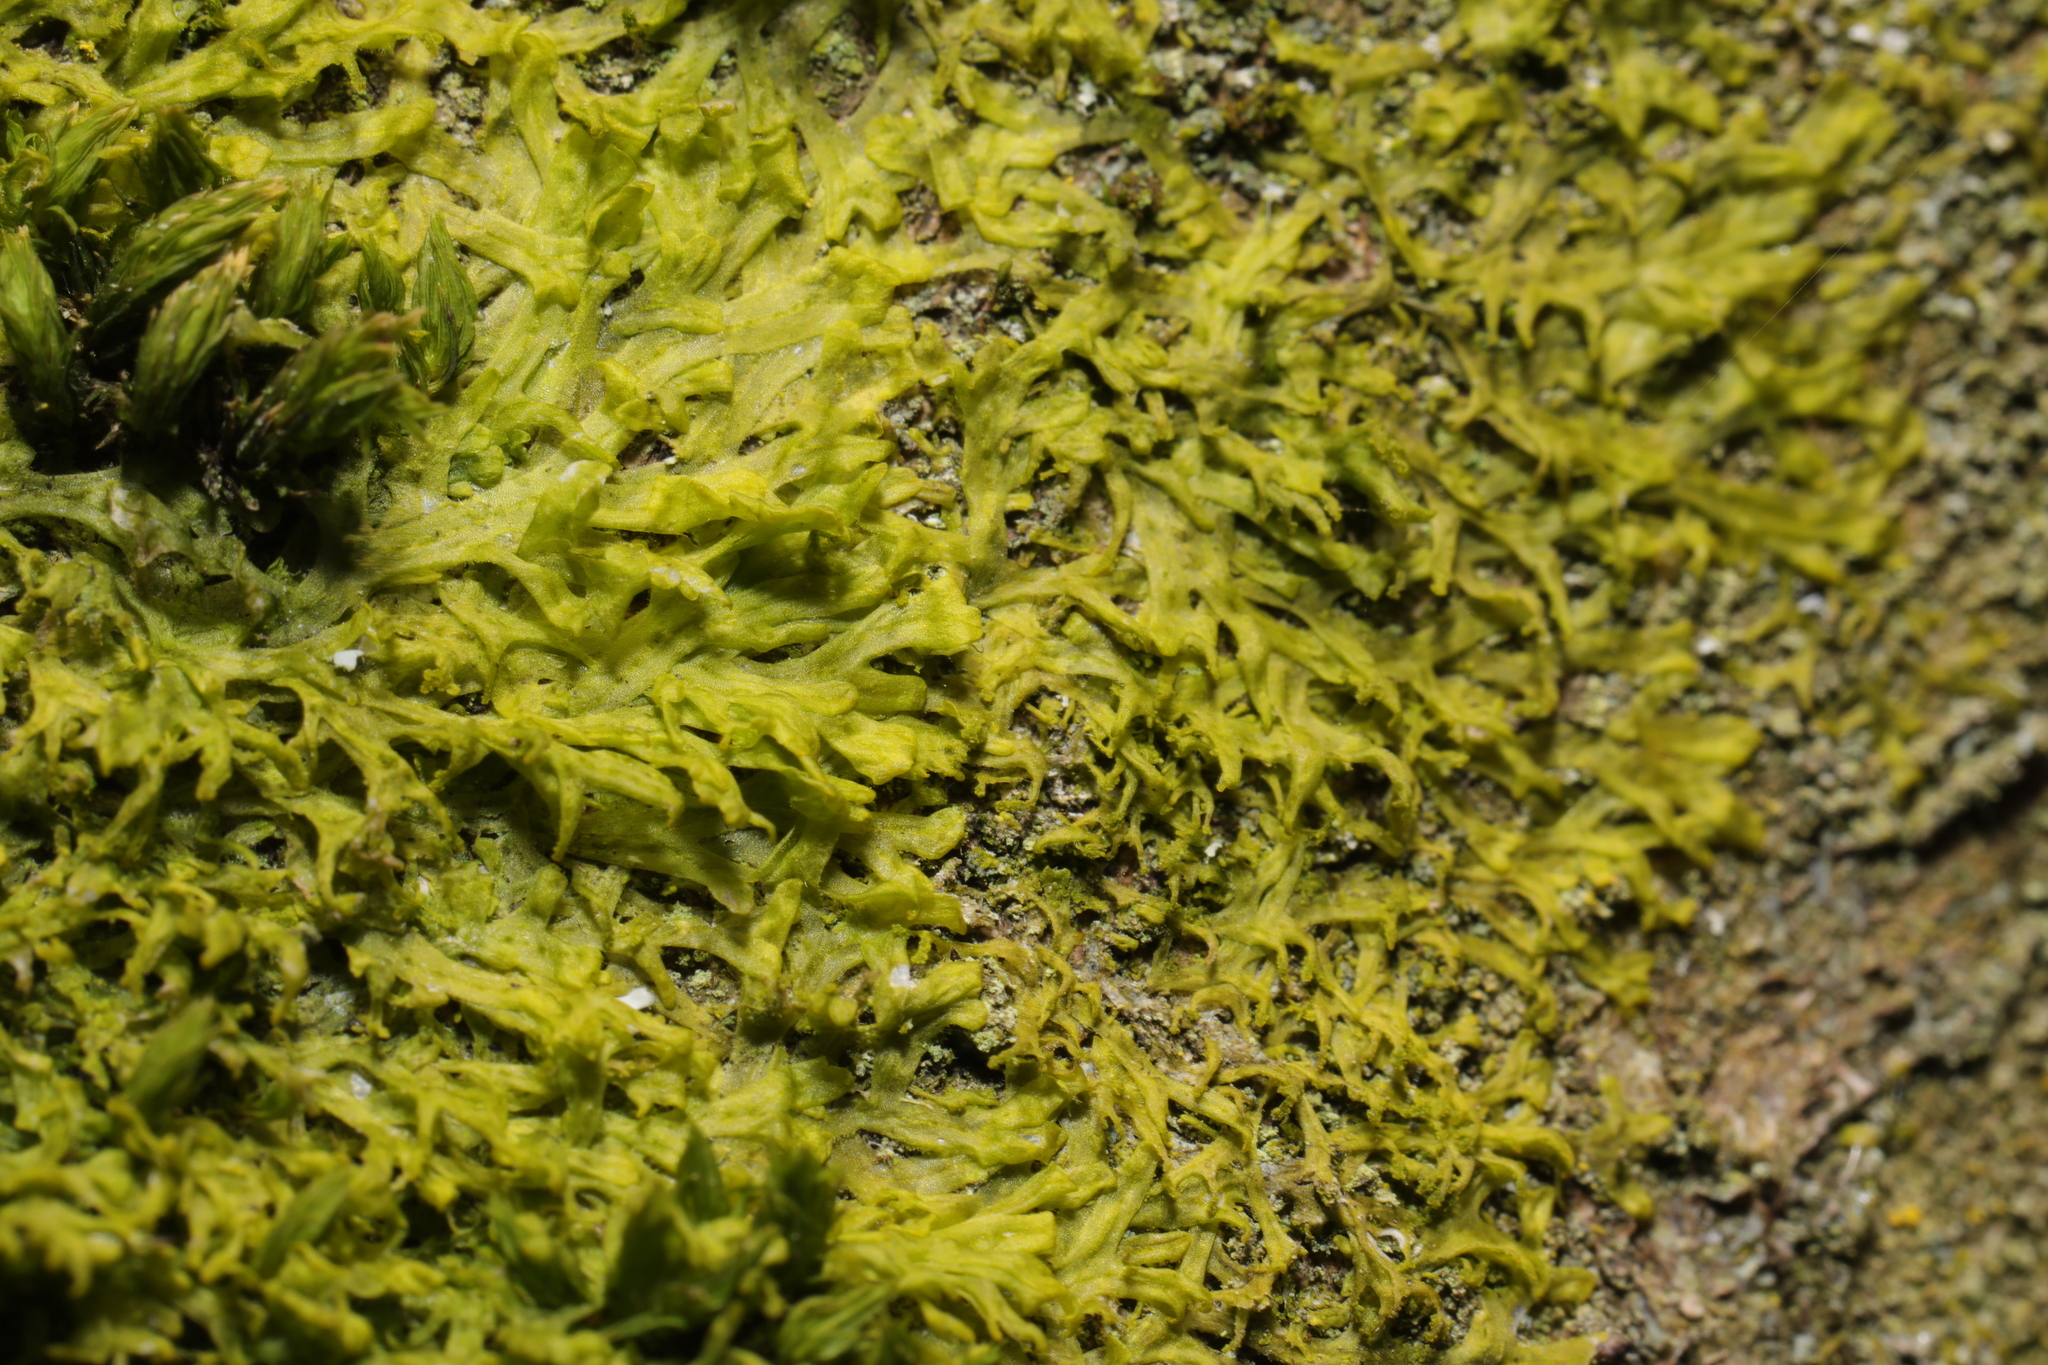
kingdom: Plantae
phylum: Marchantiophyta
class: Jungermanniopsida
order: Metzgeriales
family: Metzgeriaceae
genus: Metzgeria
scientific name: Metzgeria violacea
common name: Blueish veilwort
